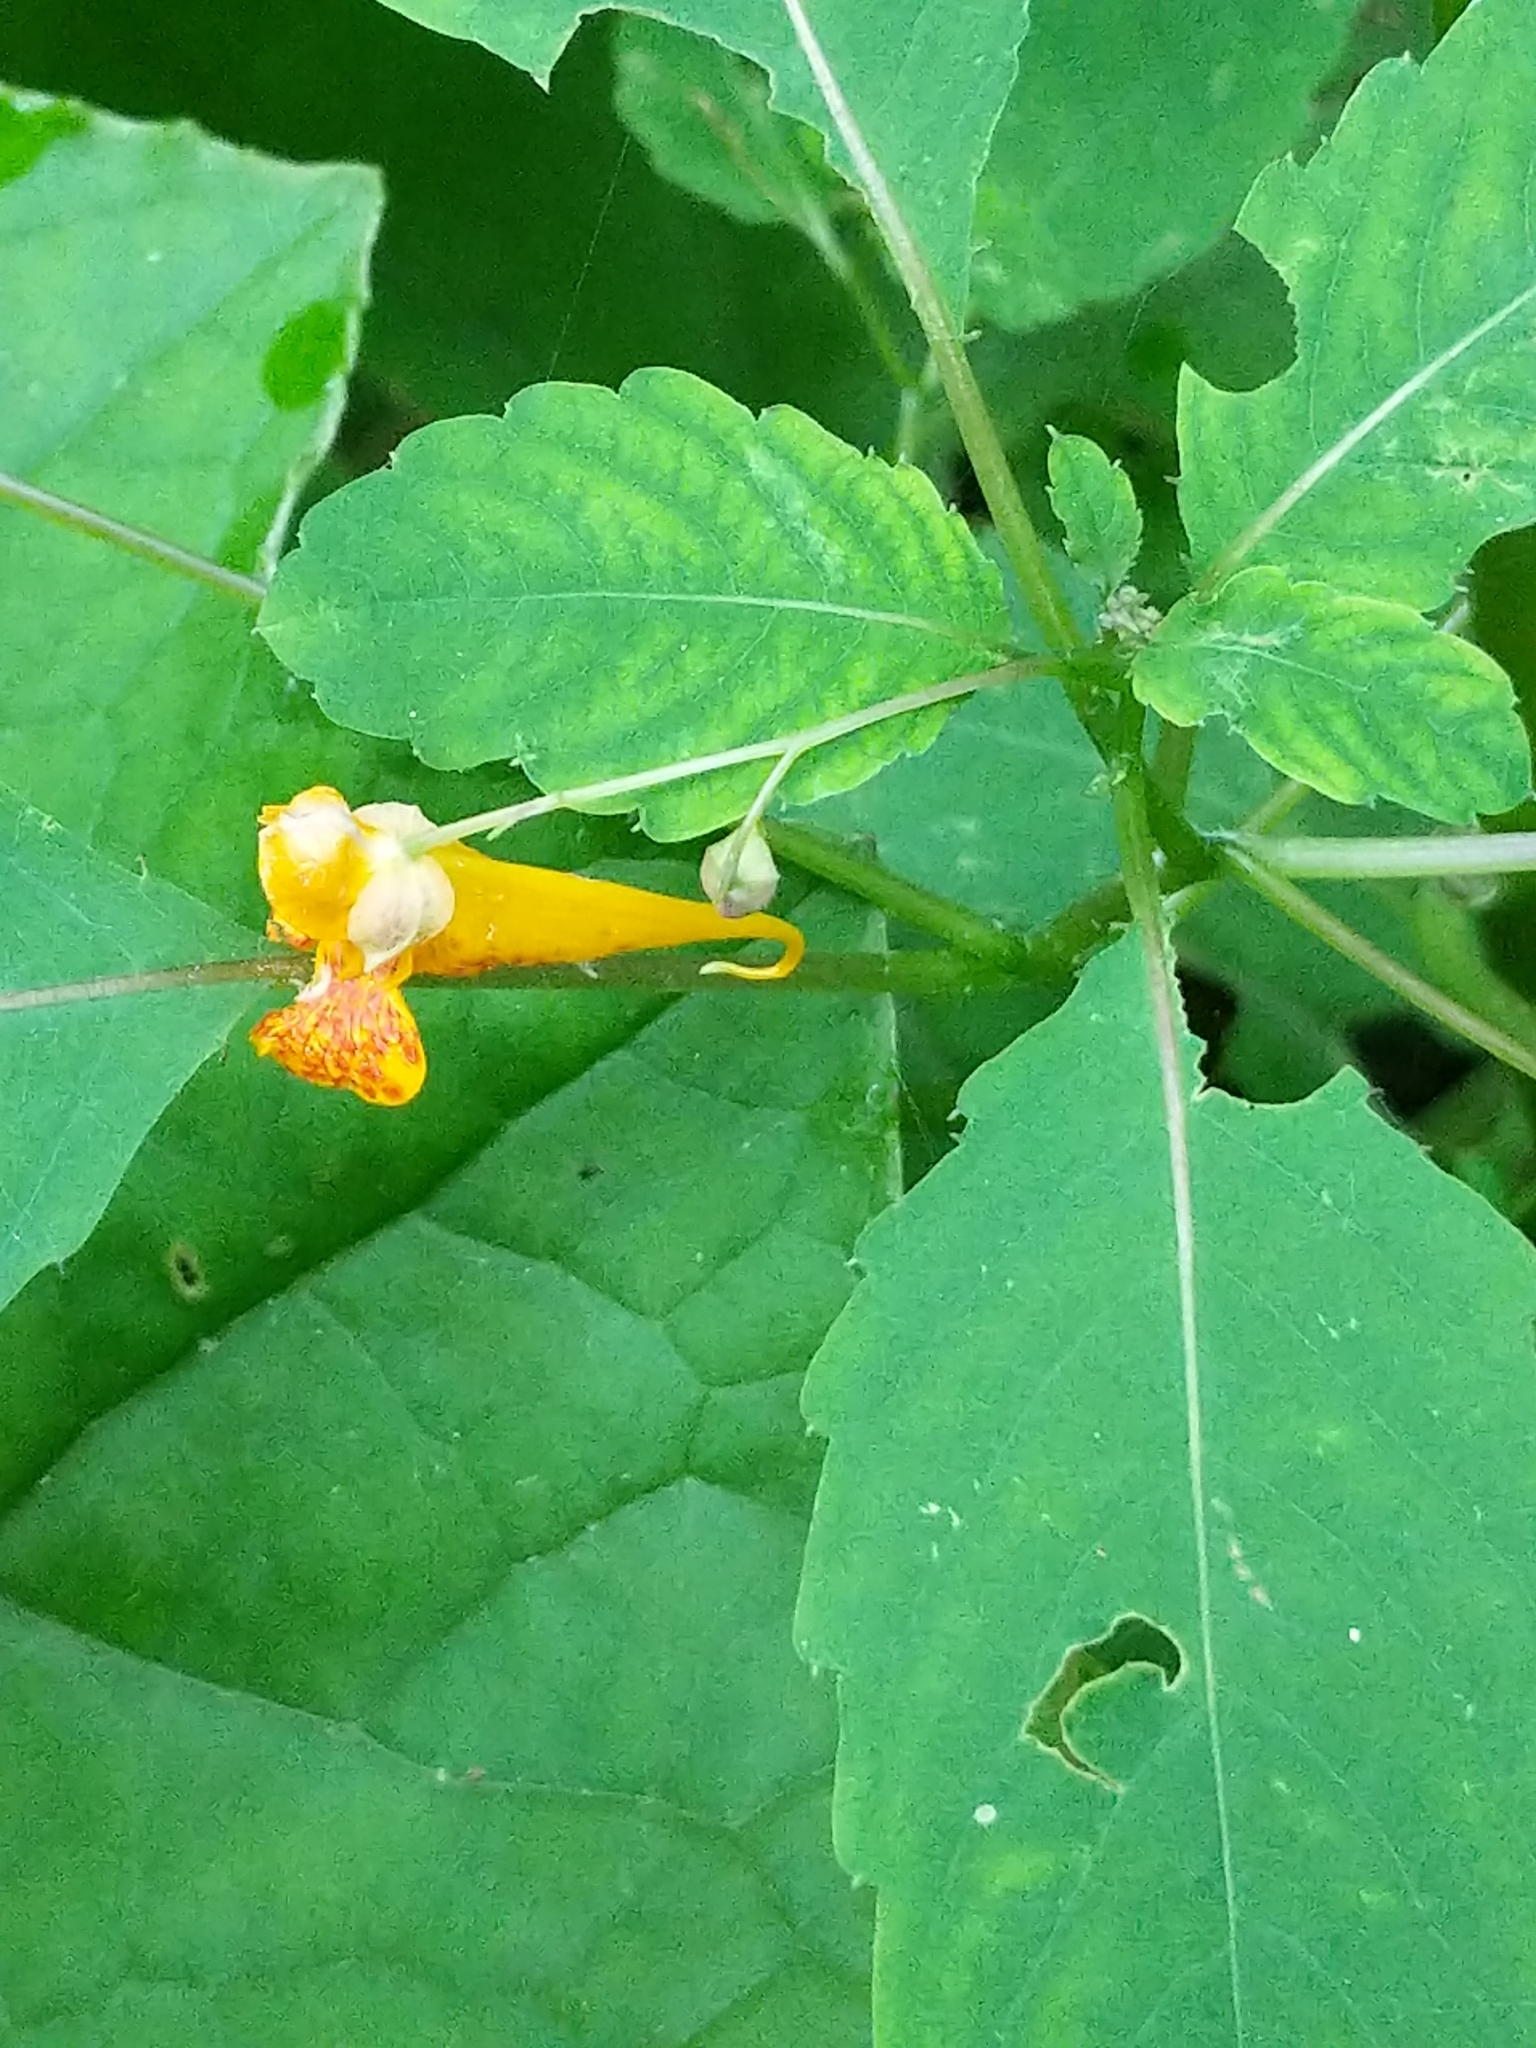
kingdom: Plantae
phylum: Tracheophyta
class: Magnoliopsida
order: Ericales
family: Balsaminaceae
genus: Impatiens
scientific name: Impatiens capensis
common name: Orange balsam
